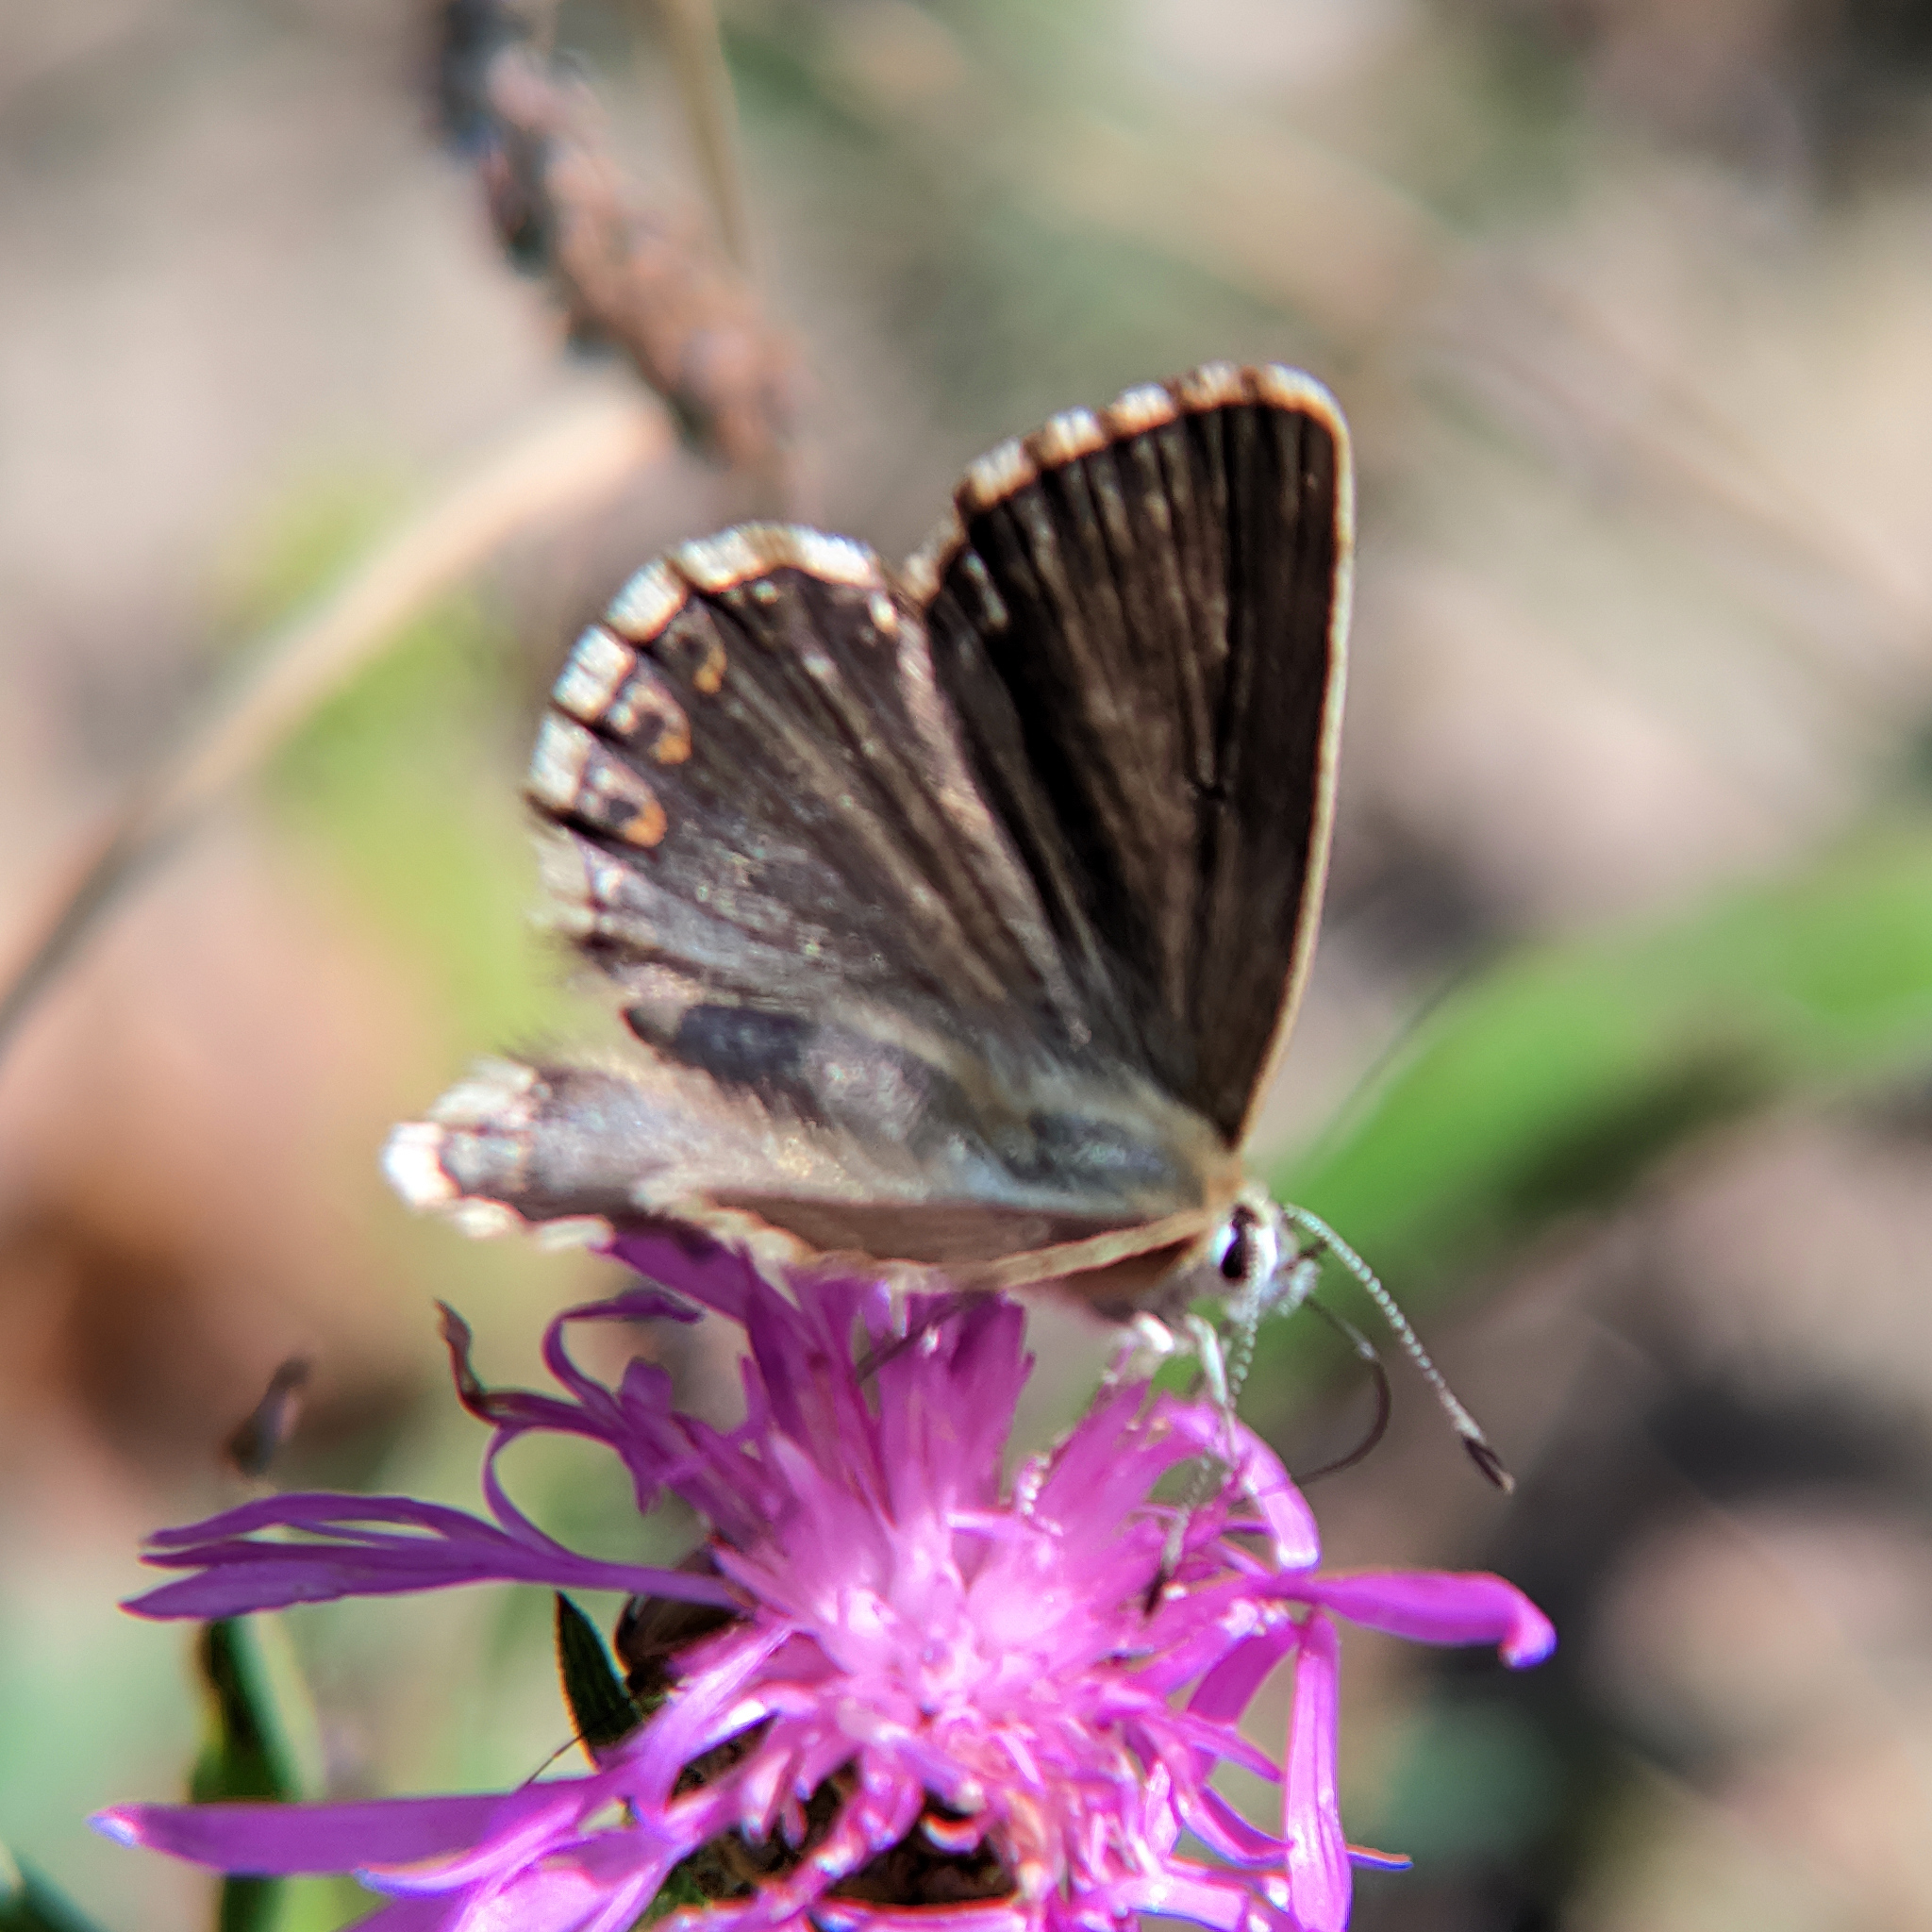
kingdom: Animalia
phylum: Arthropoda
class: Insecta
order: Lepidoptera
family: Lycaenidae
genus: Lysandra
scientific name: Lysandra coridon
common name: Chalkhill blue
